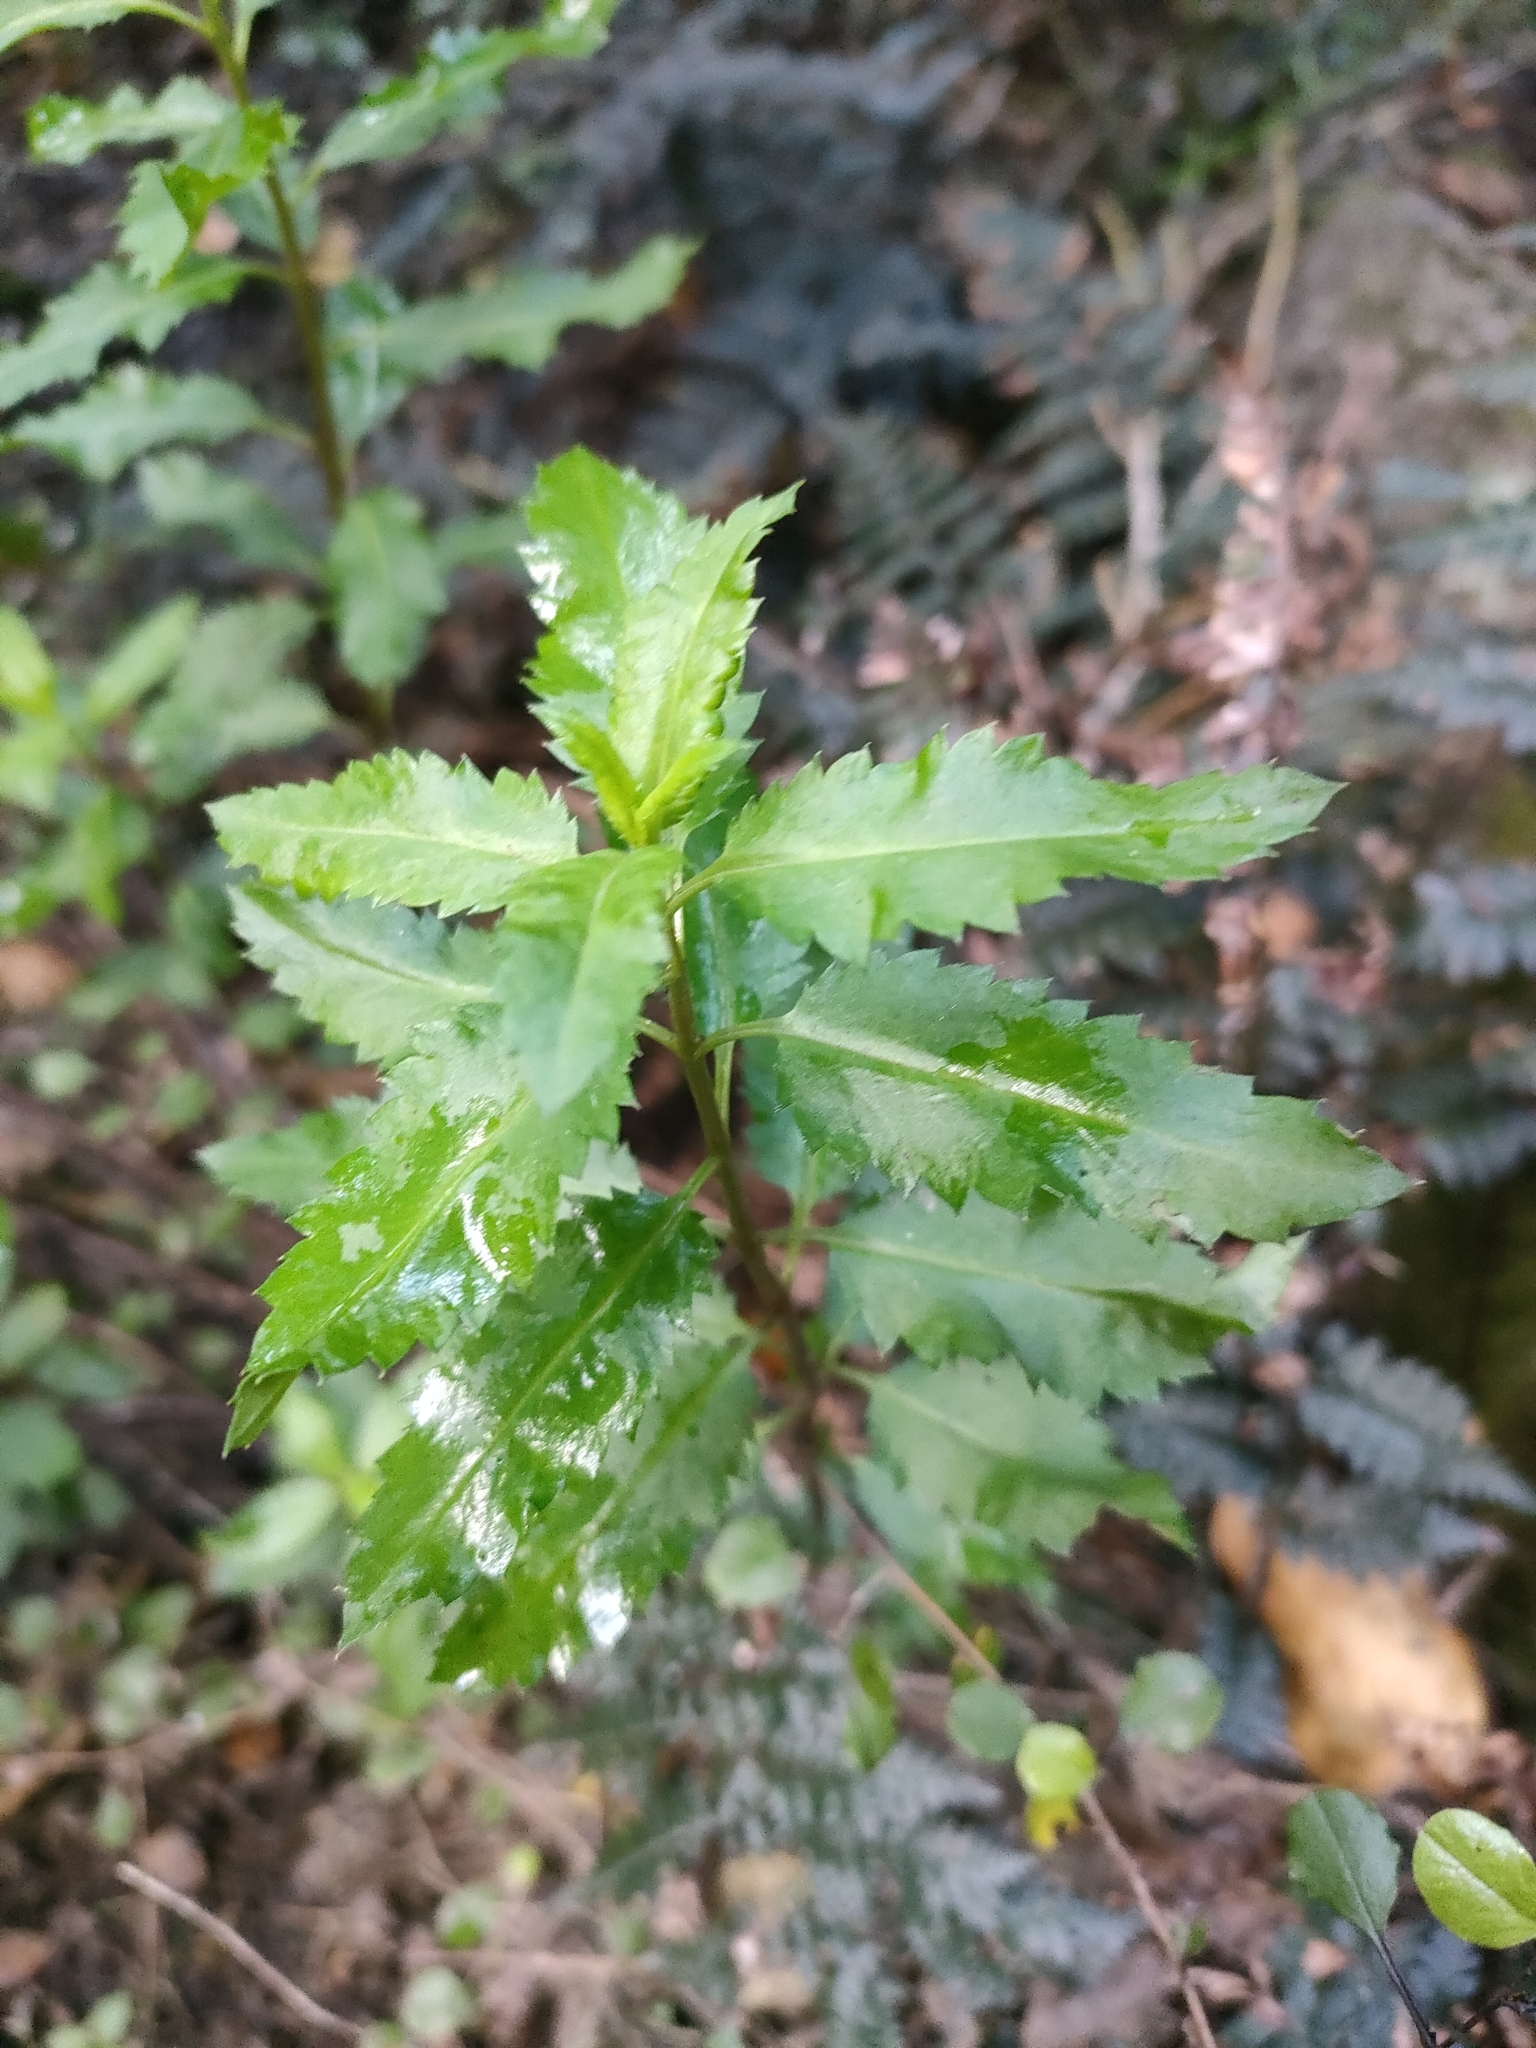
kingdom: Plantae
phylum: Tracheophyta
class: Magnoliopsida
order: Saxifragales
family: Haloragaceae
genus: Haloragis
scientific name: Haloragis erecta
